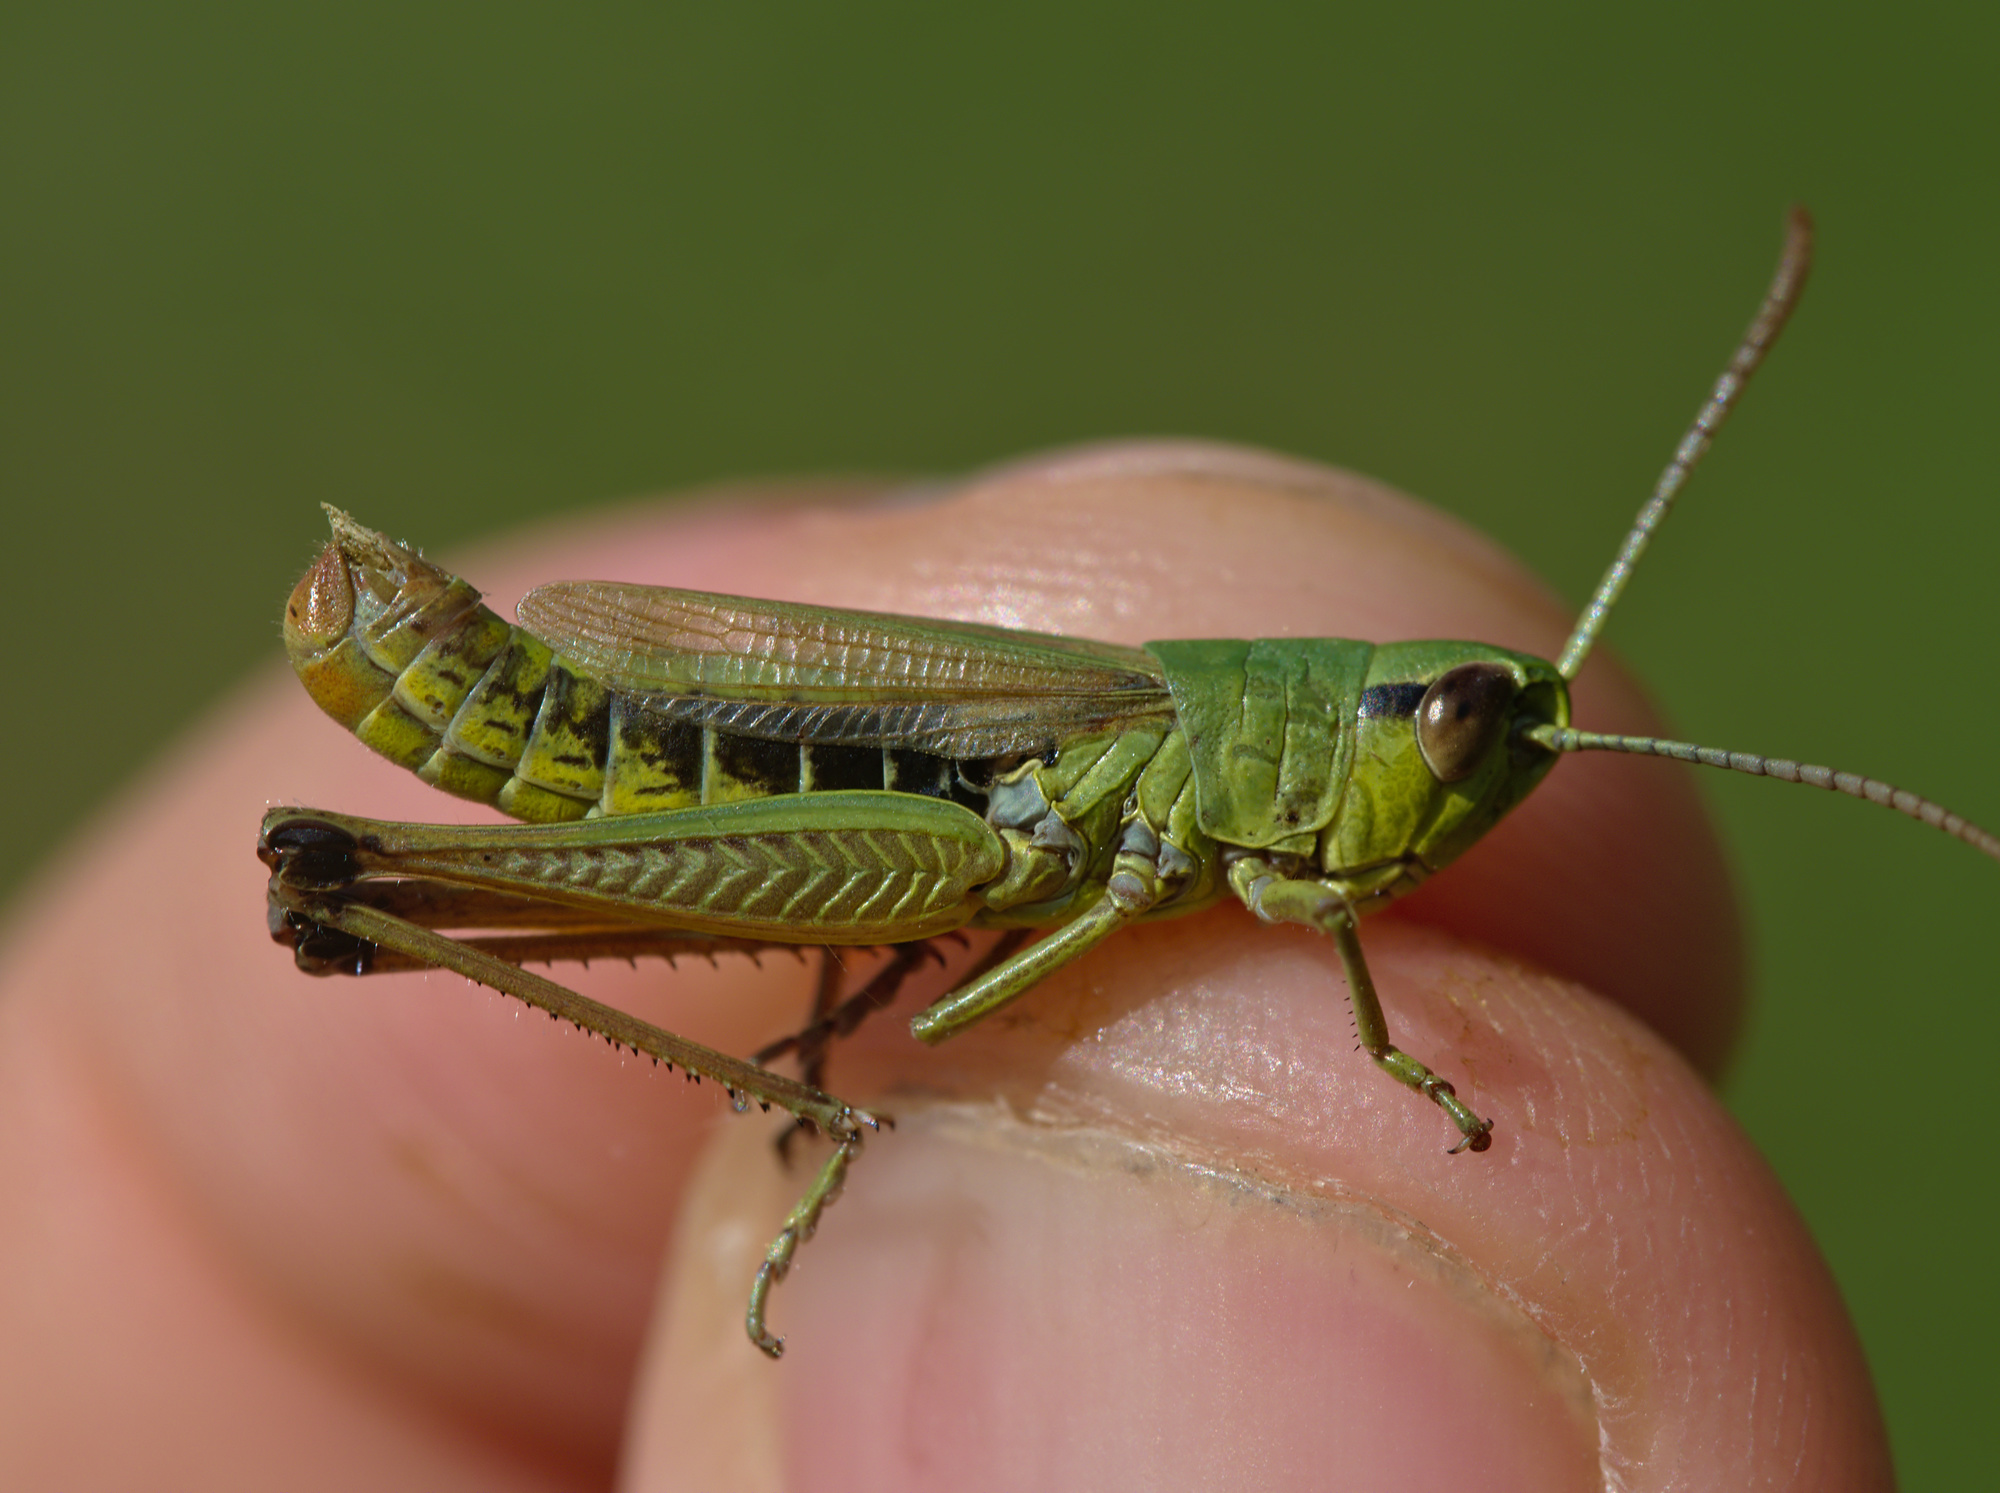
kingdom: Animalia
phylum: Arthropoda
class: Insecta
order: Orthoptera
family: Acrididae
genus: Pseudochorthippus
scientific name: Pseudochorthippus parallelus
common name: Meadow grasshopper
